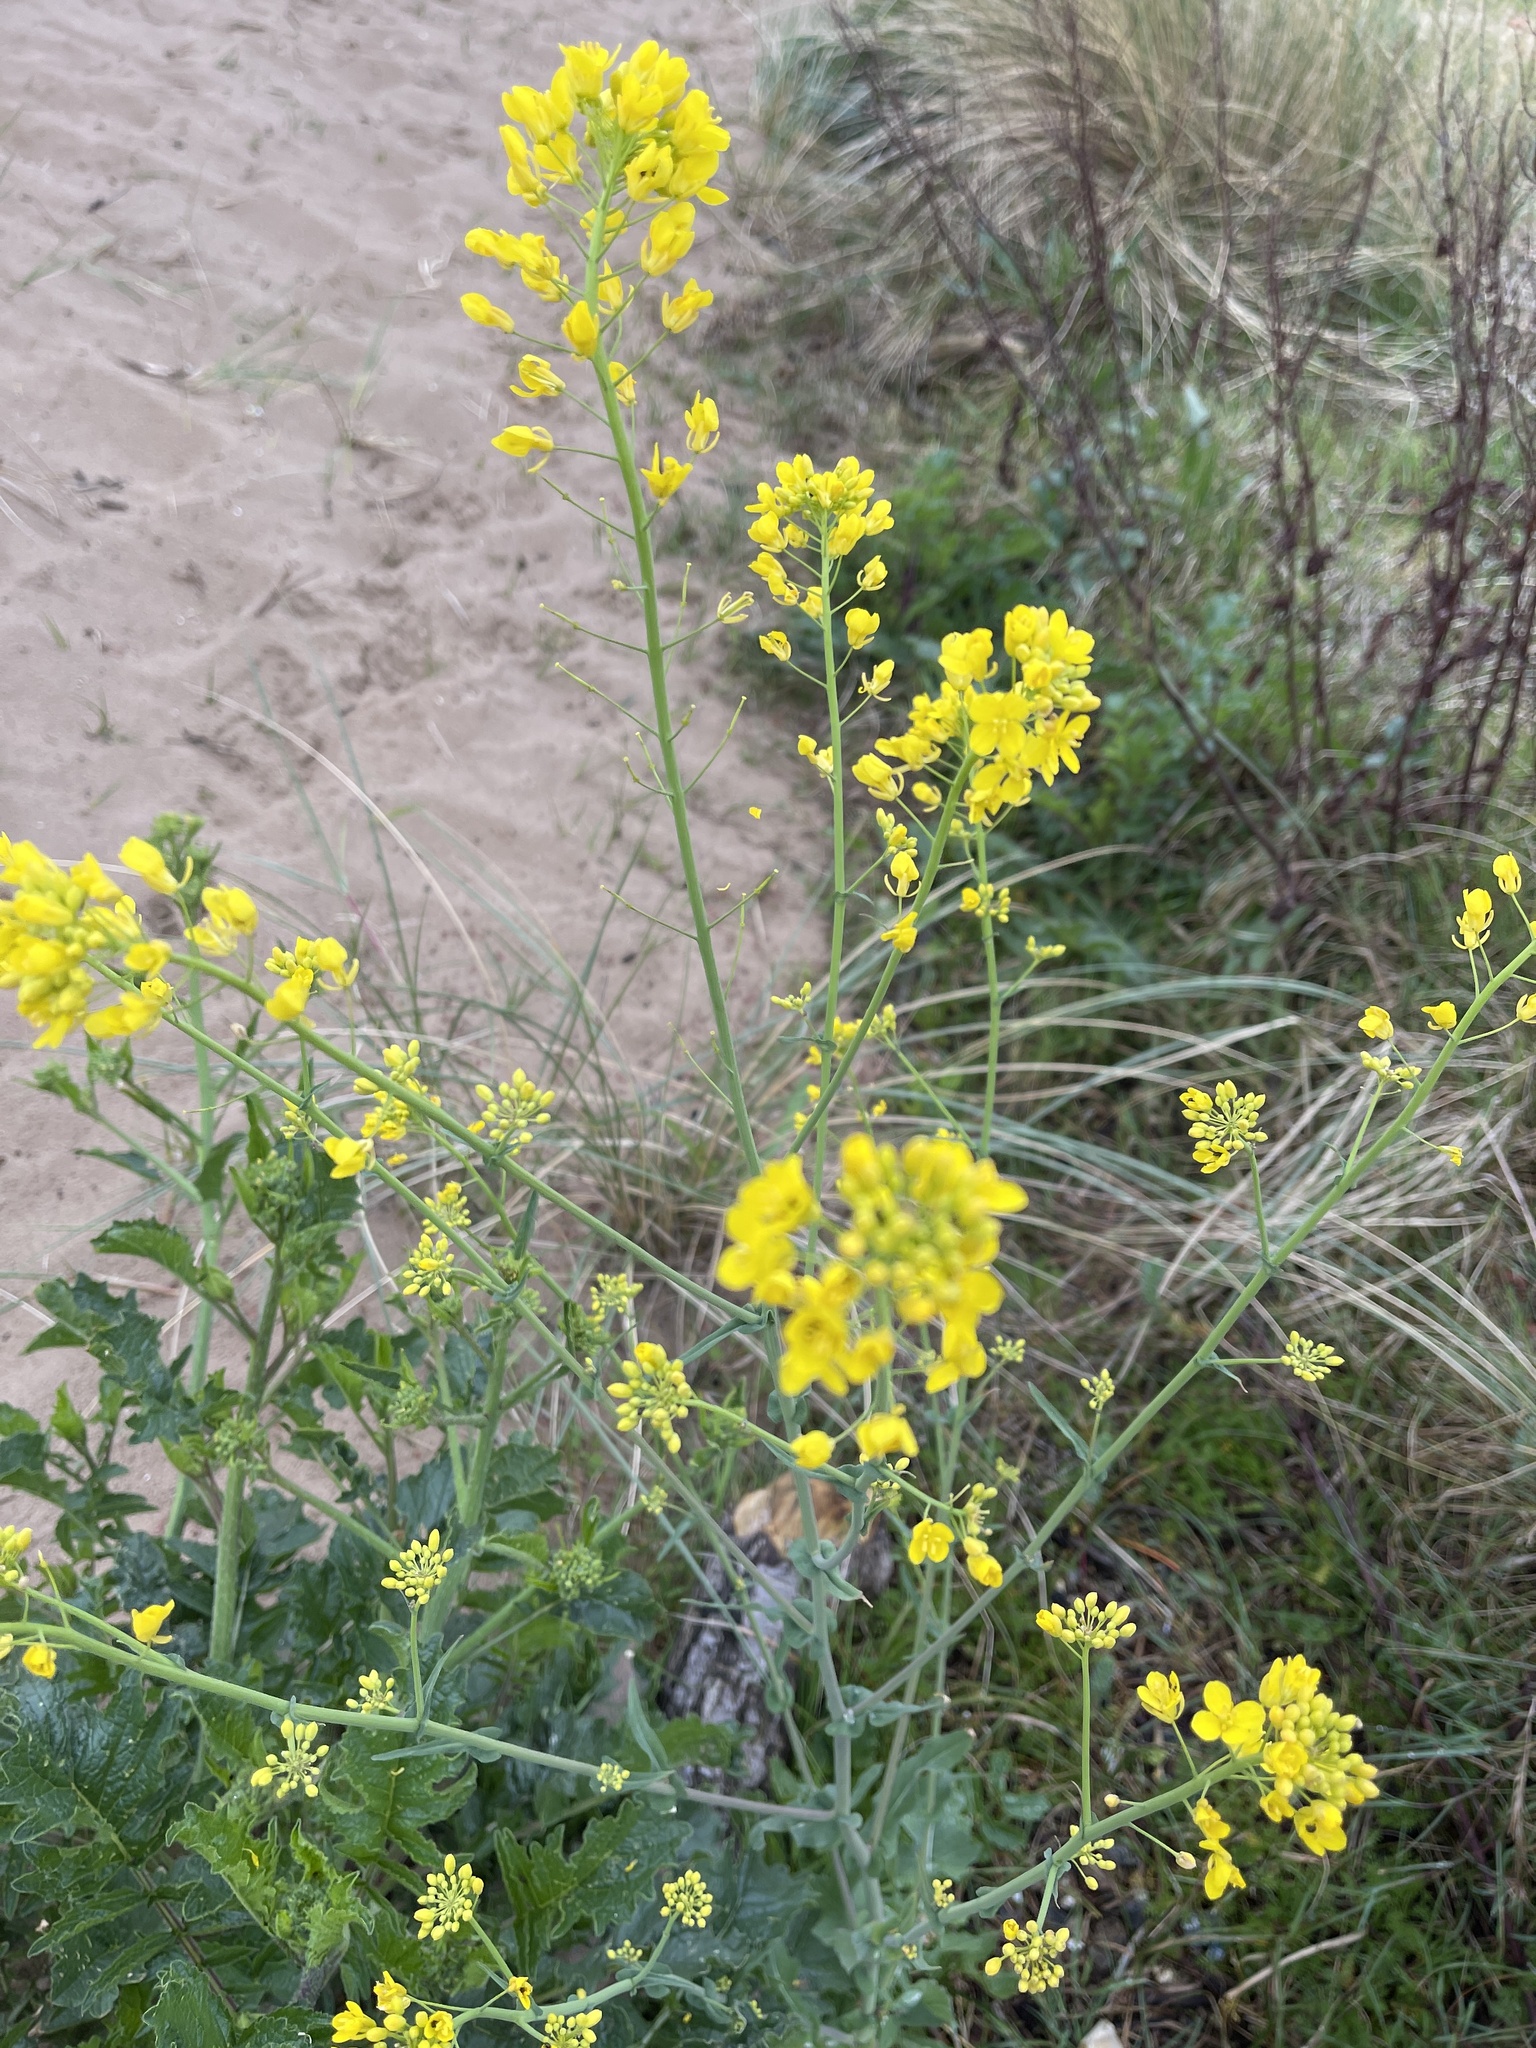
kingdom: Plantae
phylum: Tracheophyta
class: Magnoliopsida
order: Brassicales
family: Brassicaceae
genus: Brassica
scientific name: Brassica rapa
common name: Field mustard
